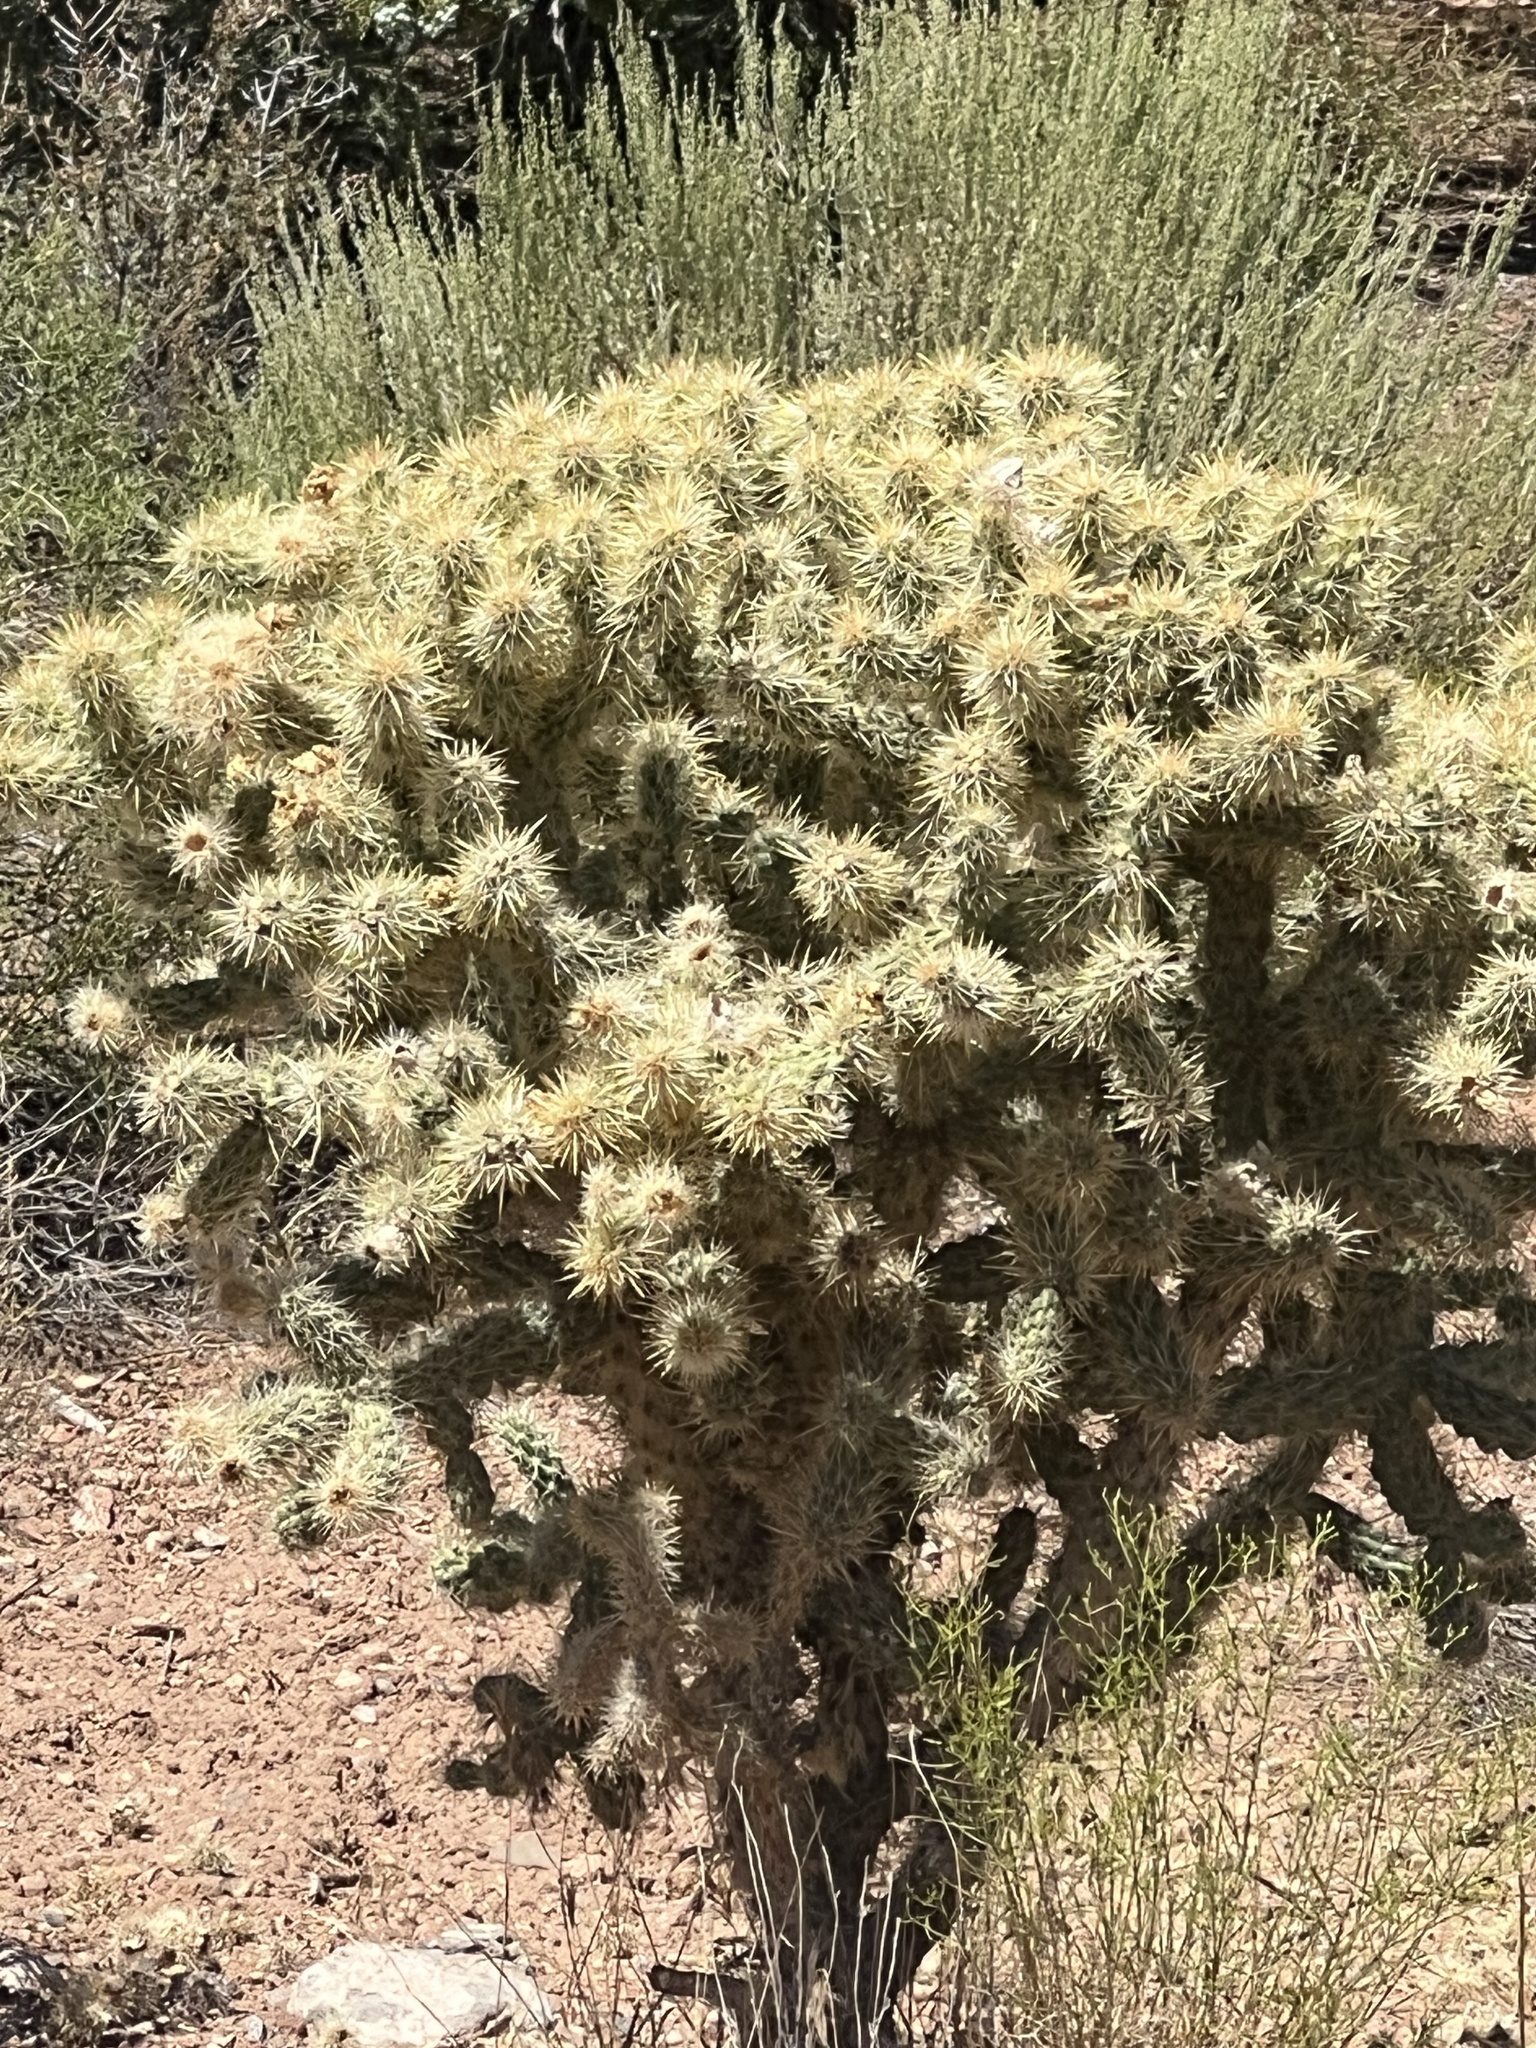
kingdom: Plantae
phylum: Tracheophyta
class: Magnoliopsida
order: Caryophyllales
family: Cactaceae
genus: Cylindropuntia
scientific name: Cylindropuntia echinocarpa
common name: Ground cholla
